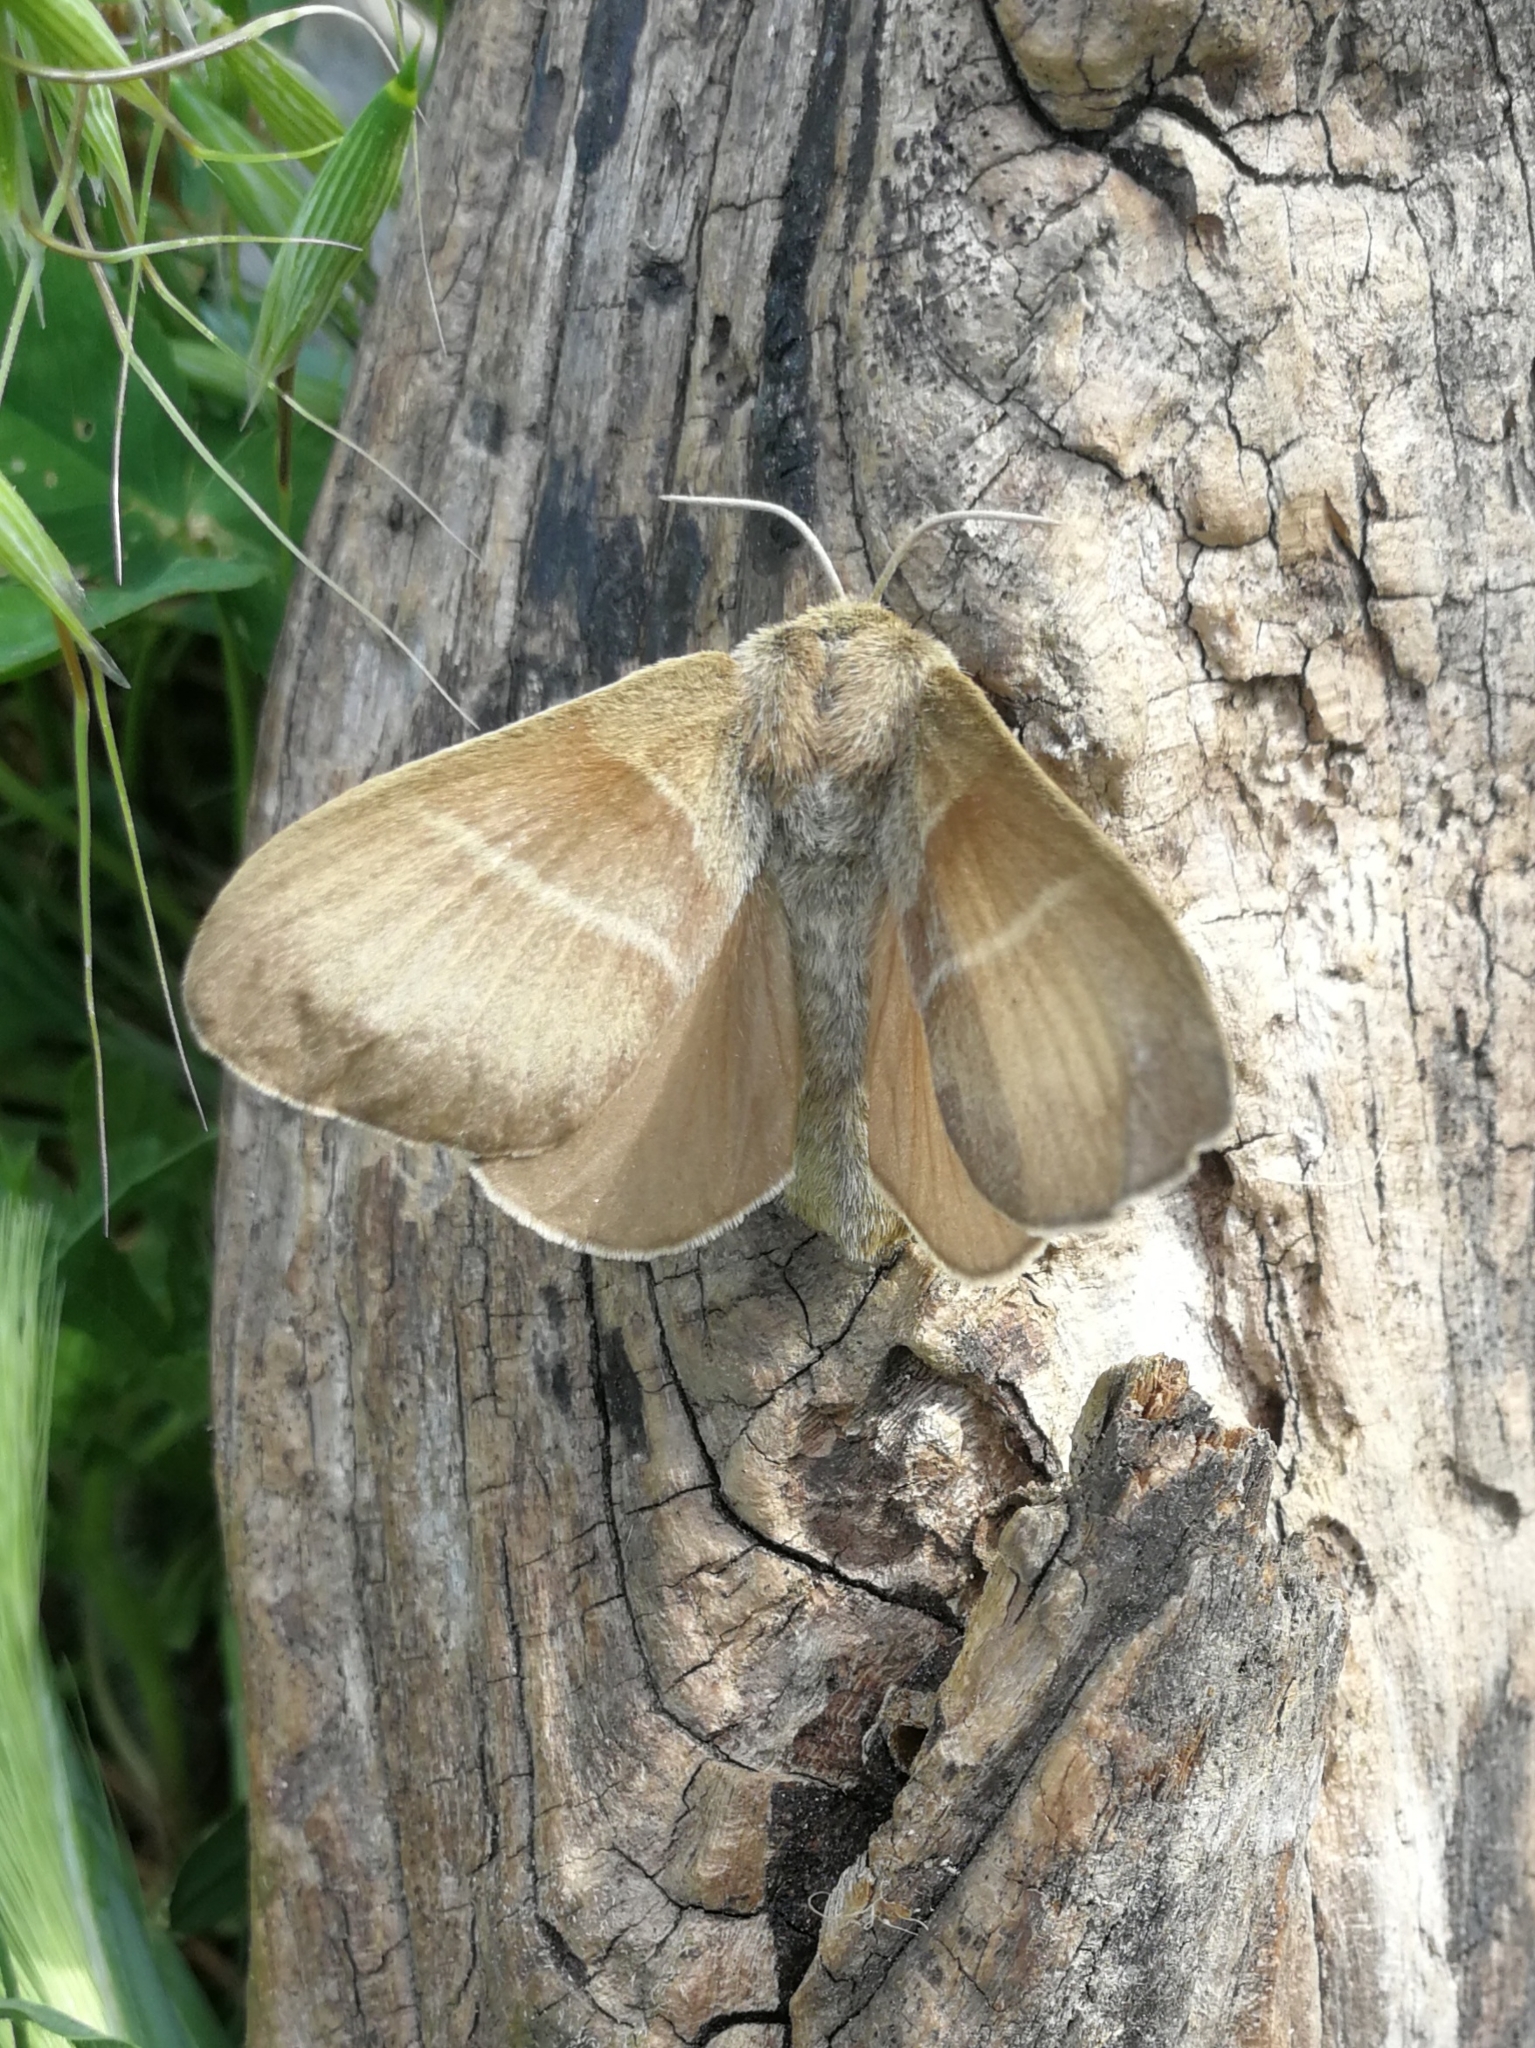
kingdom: Animalia
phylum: Arthropoda
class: Insecta
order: Lepidoptera
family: Lasiocampidae
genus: Macrothylacia
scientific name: Macrothylacia rubi
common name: Fox moth
